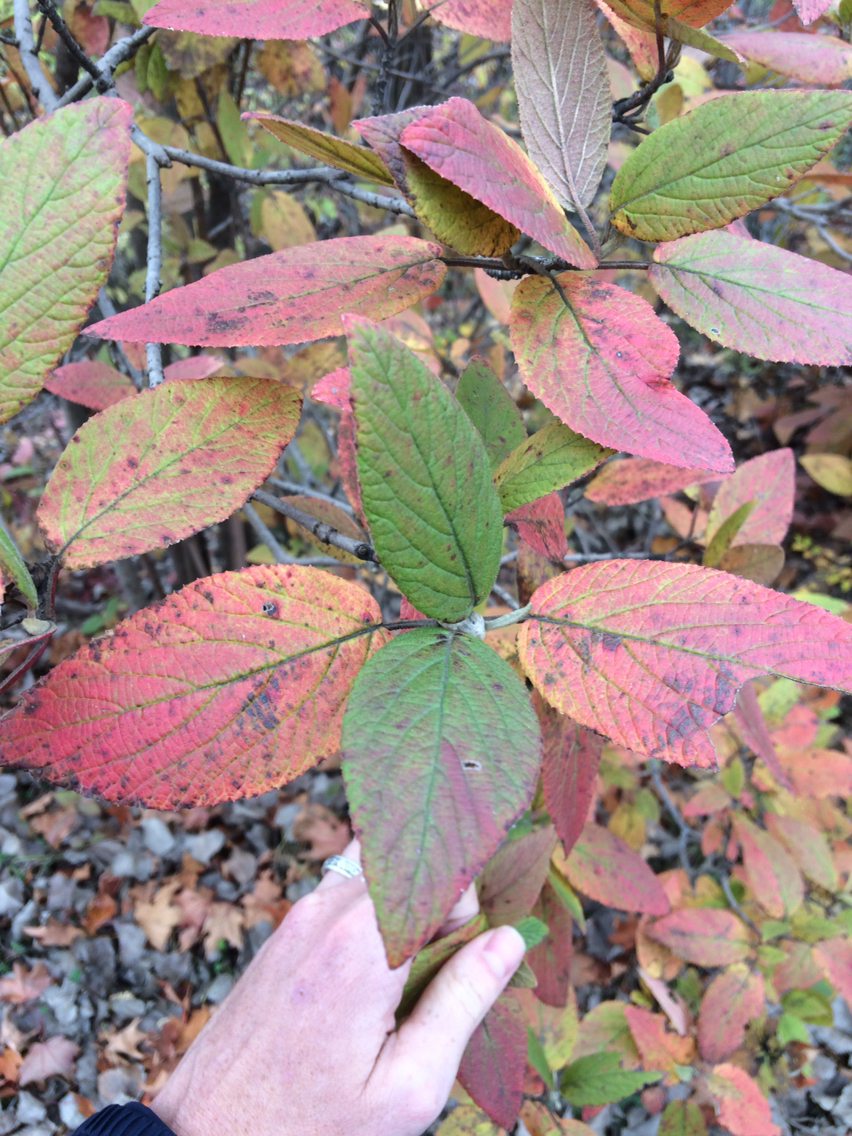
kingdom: Plantae
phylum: Tracheophyta
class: Magnoliopsida
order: Dipsacales
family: Viburnaceae
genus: Viburnum
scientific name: Viburnum lantana
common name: Wayfaring tree
